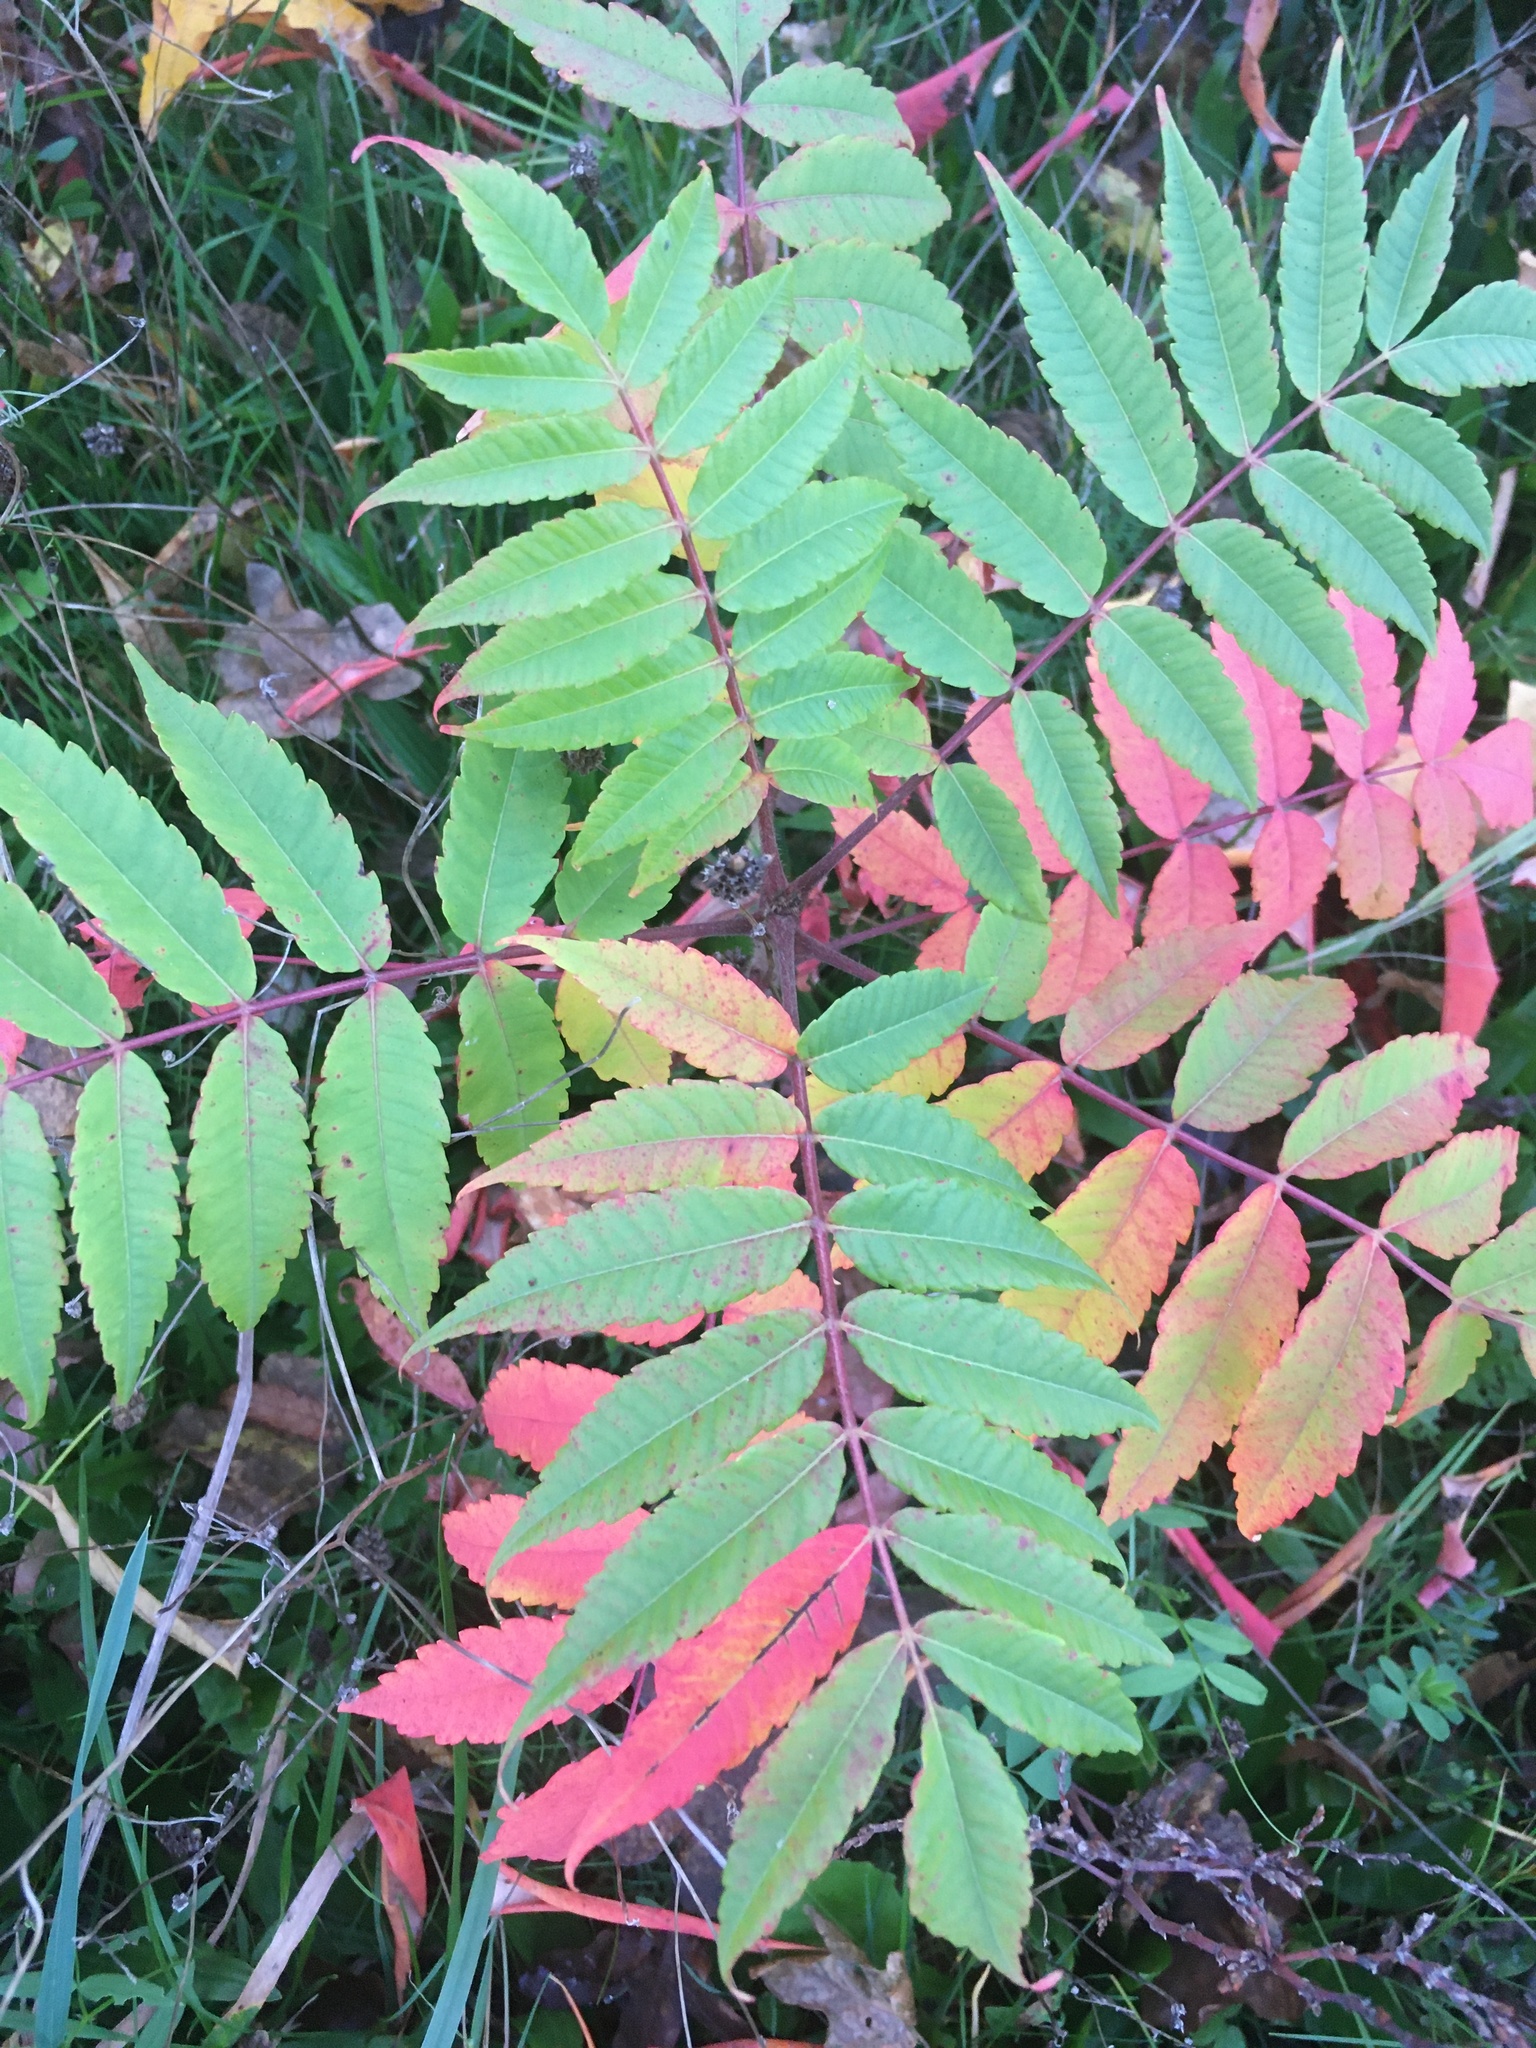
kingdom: Plantae
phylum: Tracheophyta
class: Magnoliopsida
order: Sapindales
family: Anacardiaceae
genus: Rhus
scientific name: Rhus typhina
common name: Staghorn sumac
